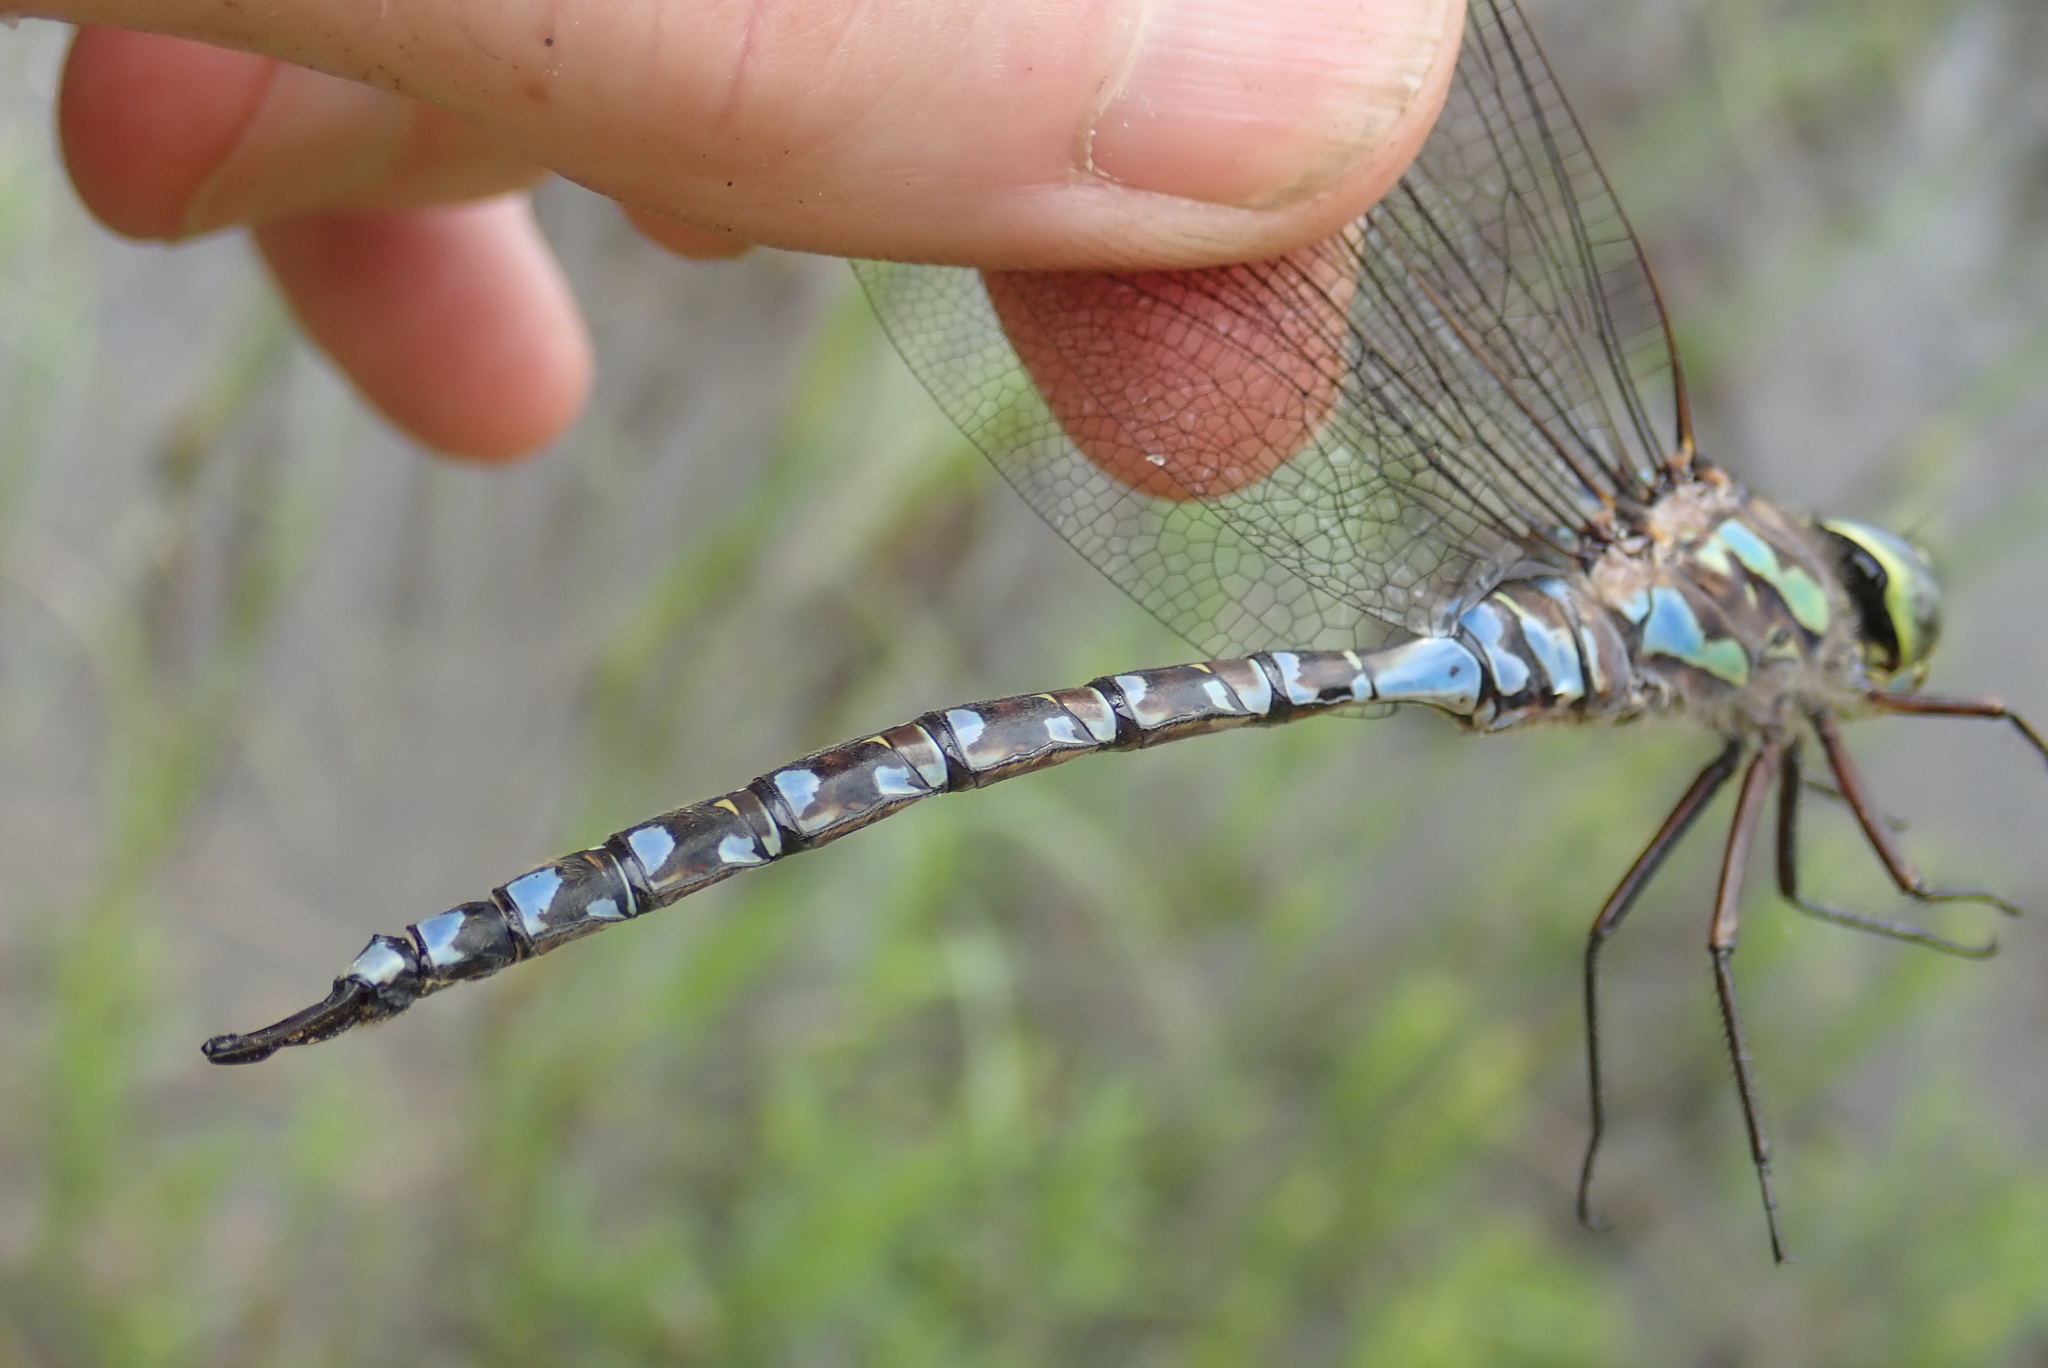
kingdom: Animalia
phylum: Arthropoda
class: Insecta
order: Odonata
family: Aeshnidae
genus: Aeshna
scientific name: Aeshna eremita
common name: Lake darner
